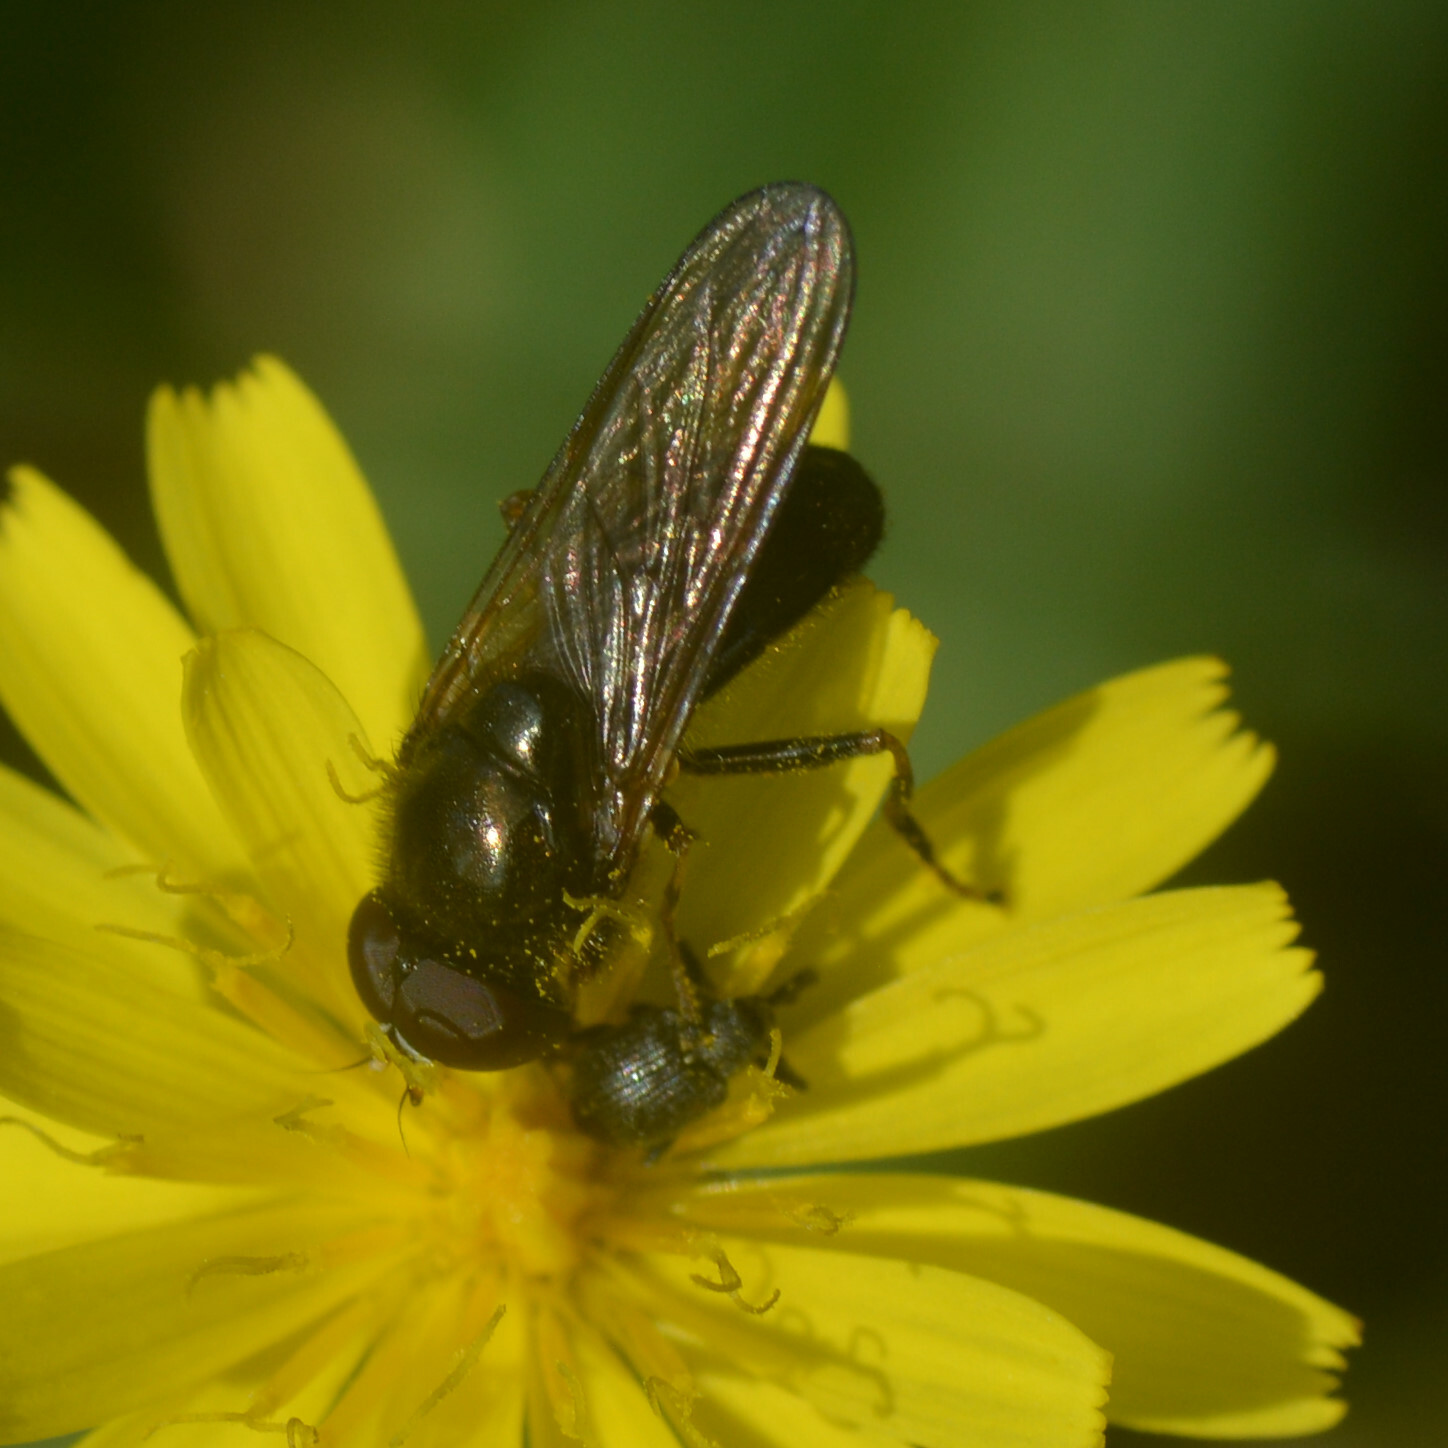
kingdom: Animalia
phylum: Arthropoda
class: Insecta
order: Diptera
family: Syrphidae
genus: Cheilosia
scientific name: Cheilosia
